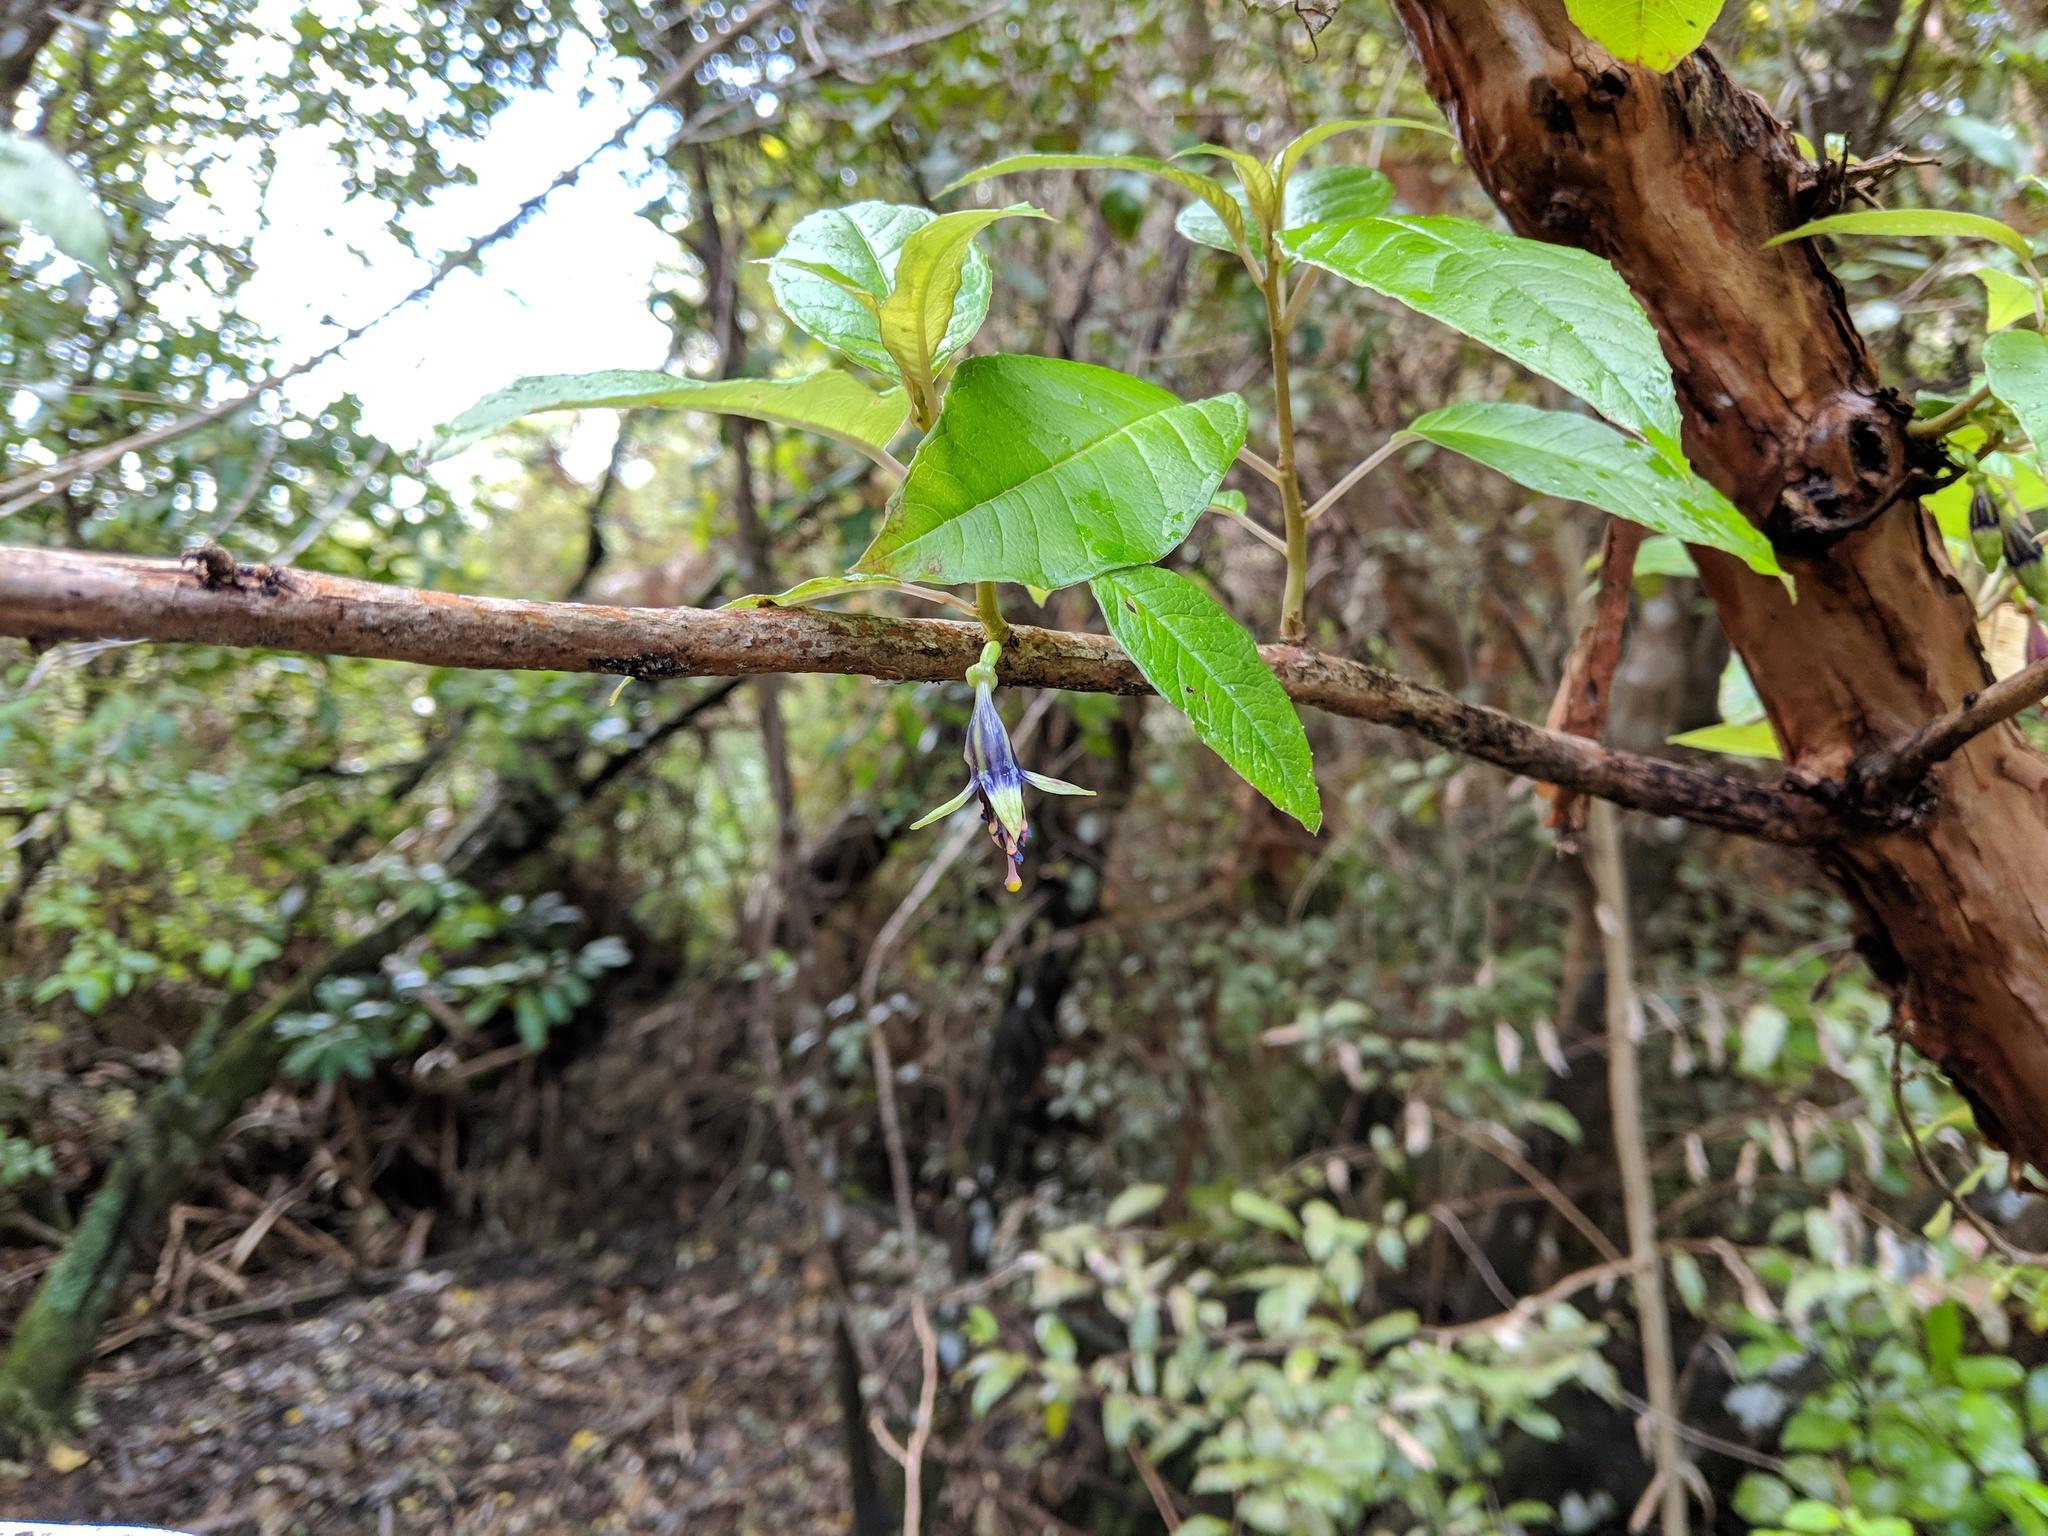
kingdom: Plantae
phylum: Tracheophyta
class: Magnoliopsida
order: Myrtales
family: Onagraceae
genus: Fuchsia
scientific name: Fuchsia excorticata
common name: Tree fuchsia
